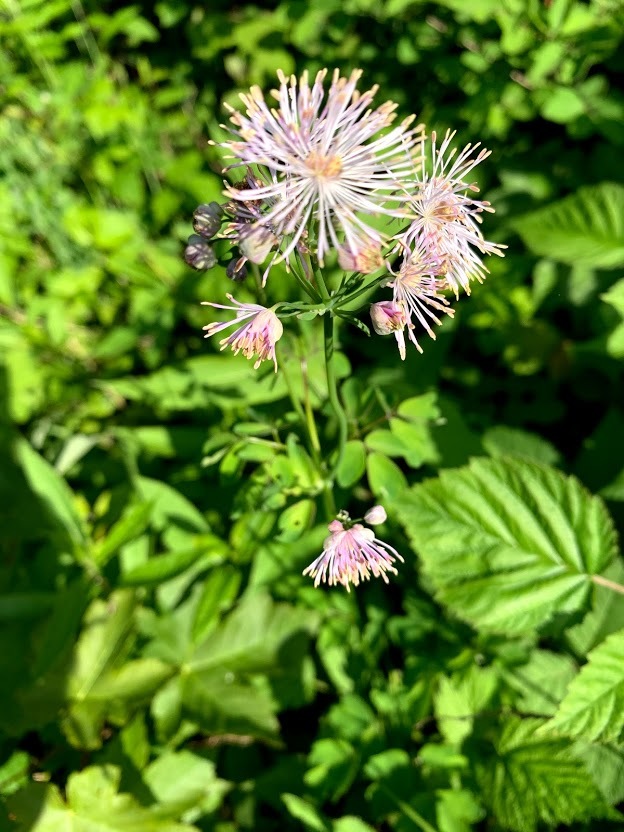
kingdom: Plantae
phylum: Tracheophyta
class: Magnoliopsida
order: Ranunculales
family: Ranunculaceae
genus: Thalictrum
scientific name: Thalictrum aquilegiifolium
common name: French meadow-rue
